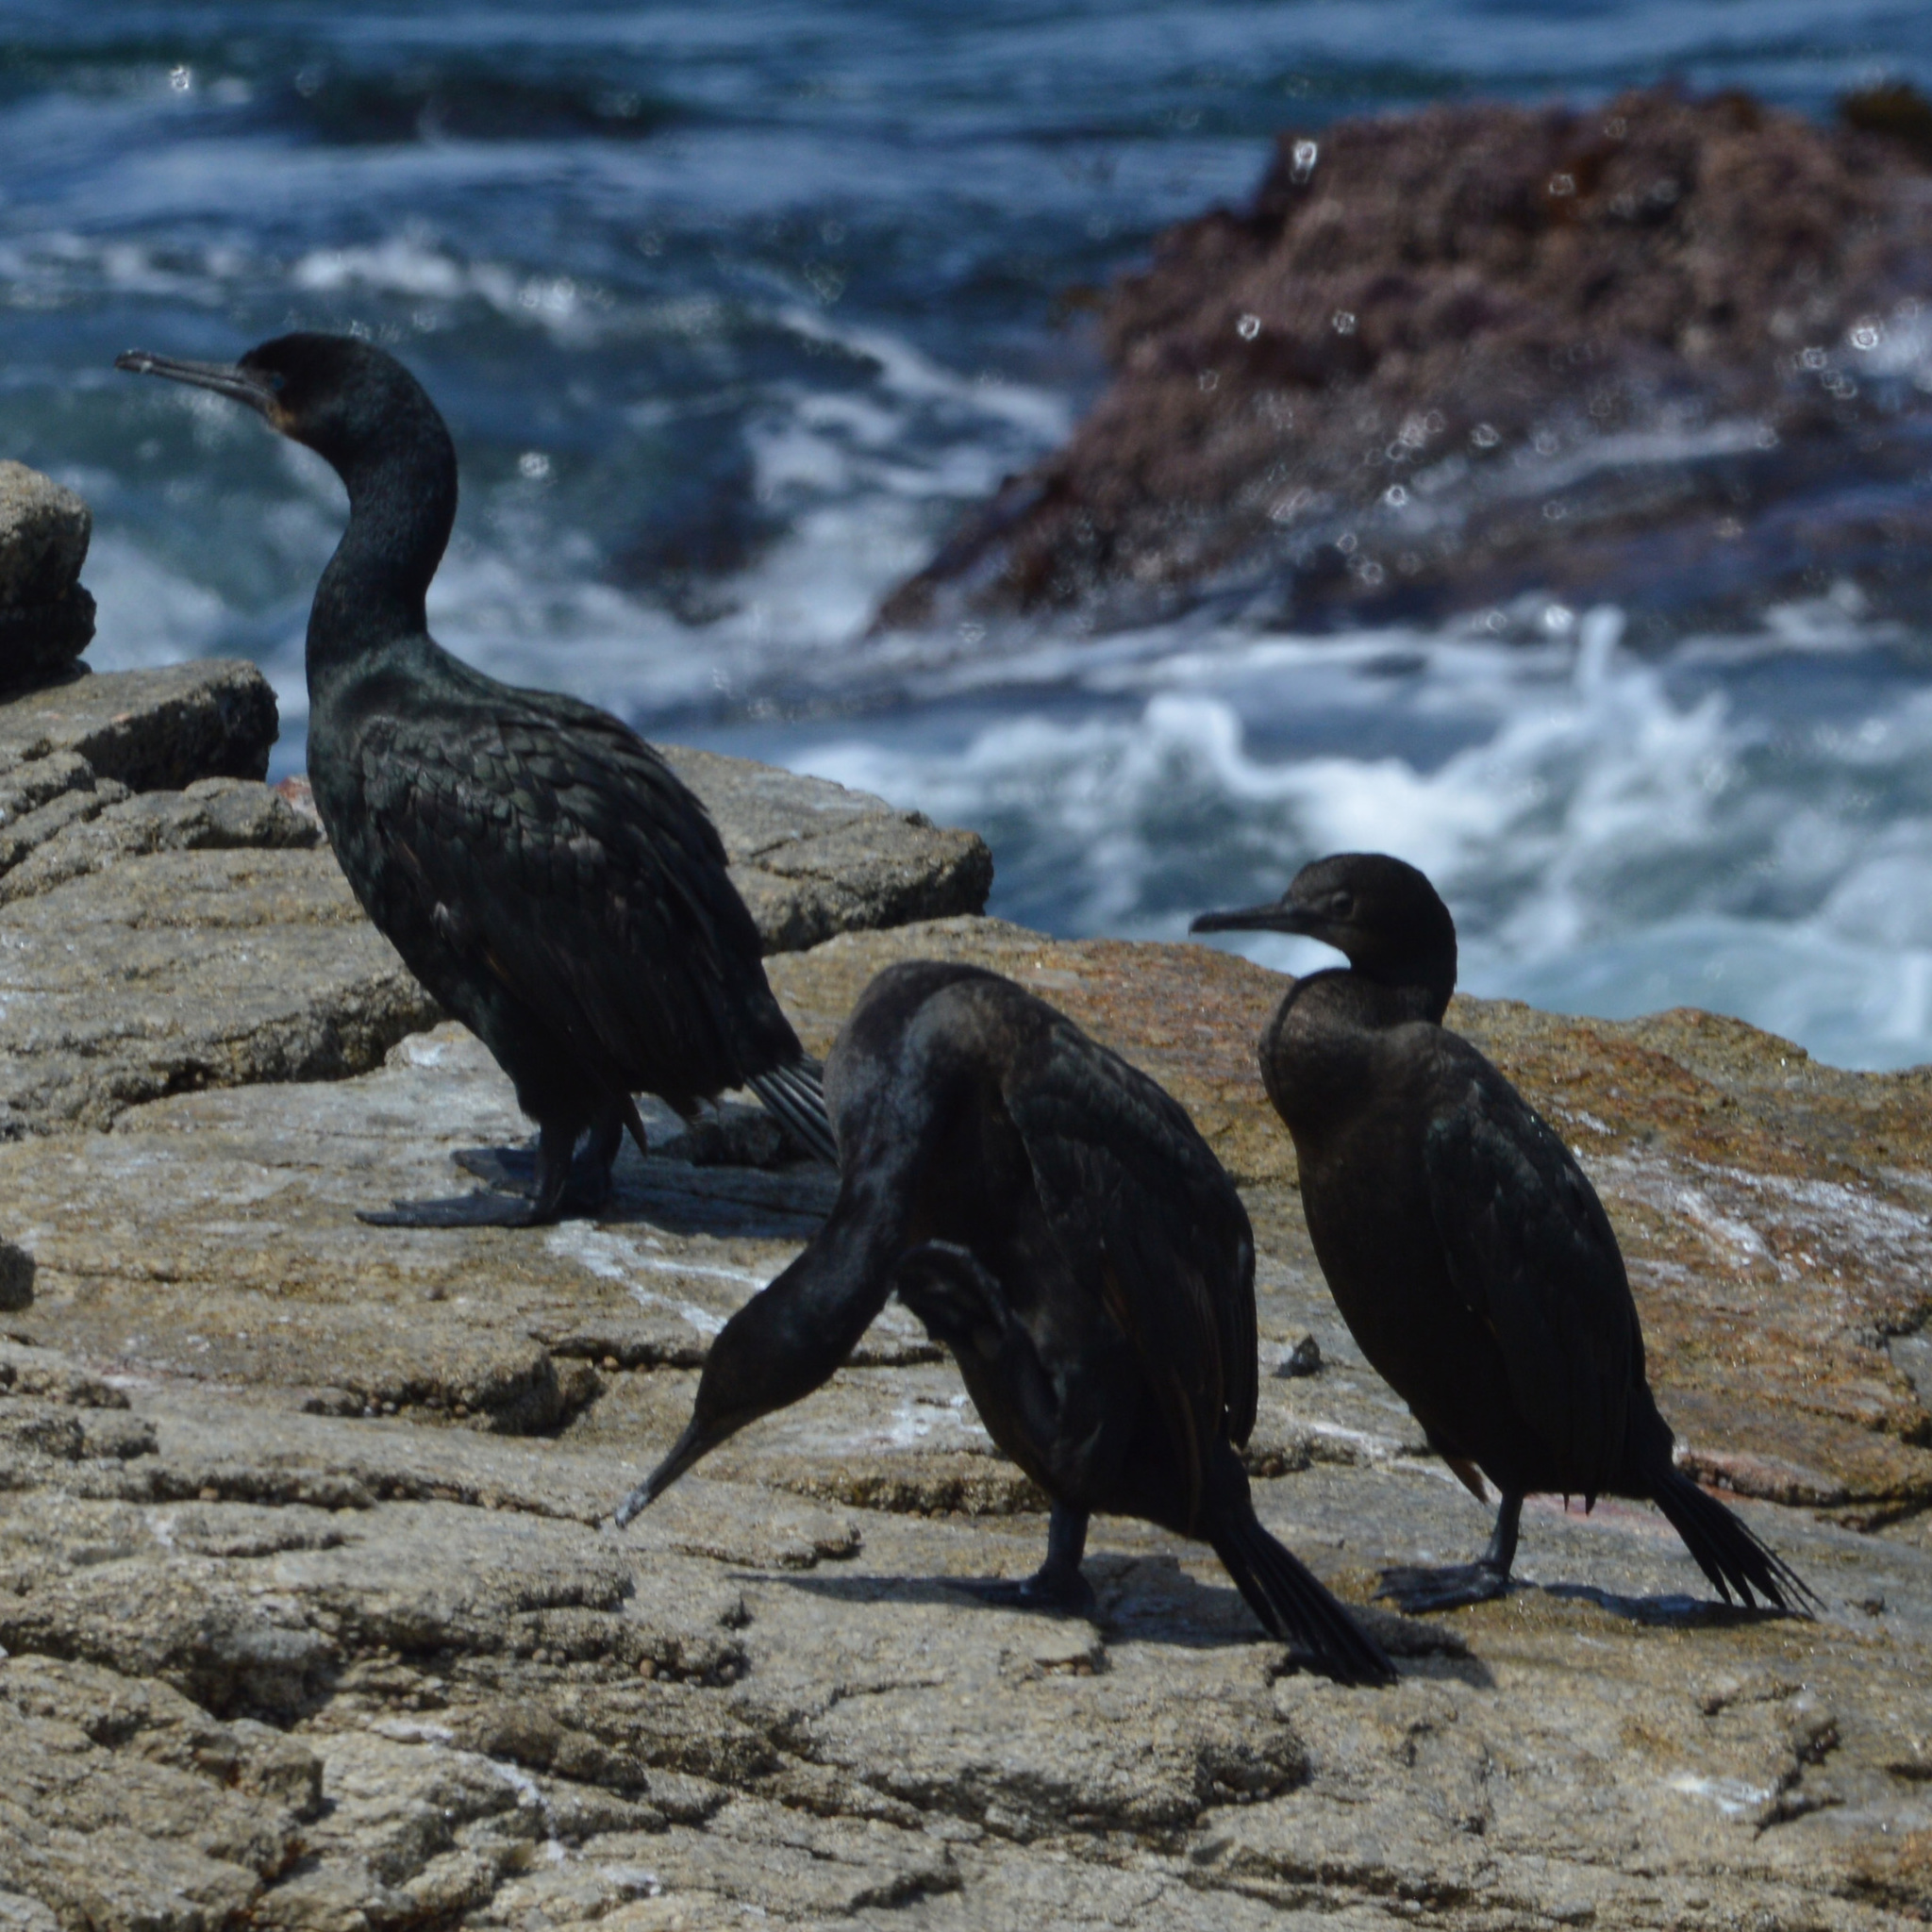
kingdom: Animalia
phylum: Chordata
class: Aves
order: Suliformes
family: Phalacrocoracidae
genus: Urile
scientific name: Urile penicillatus
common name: Brandt's cormorant
